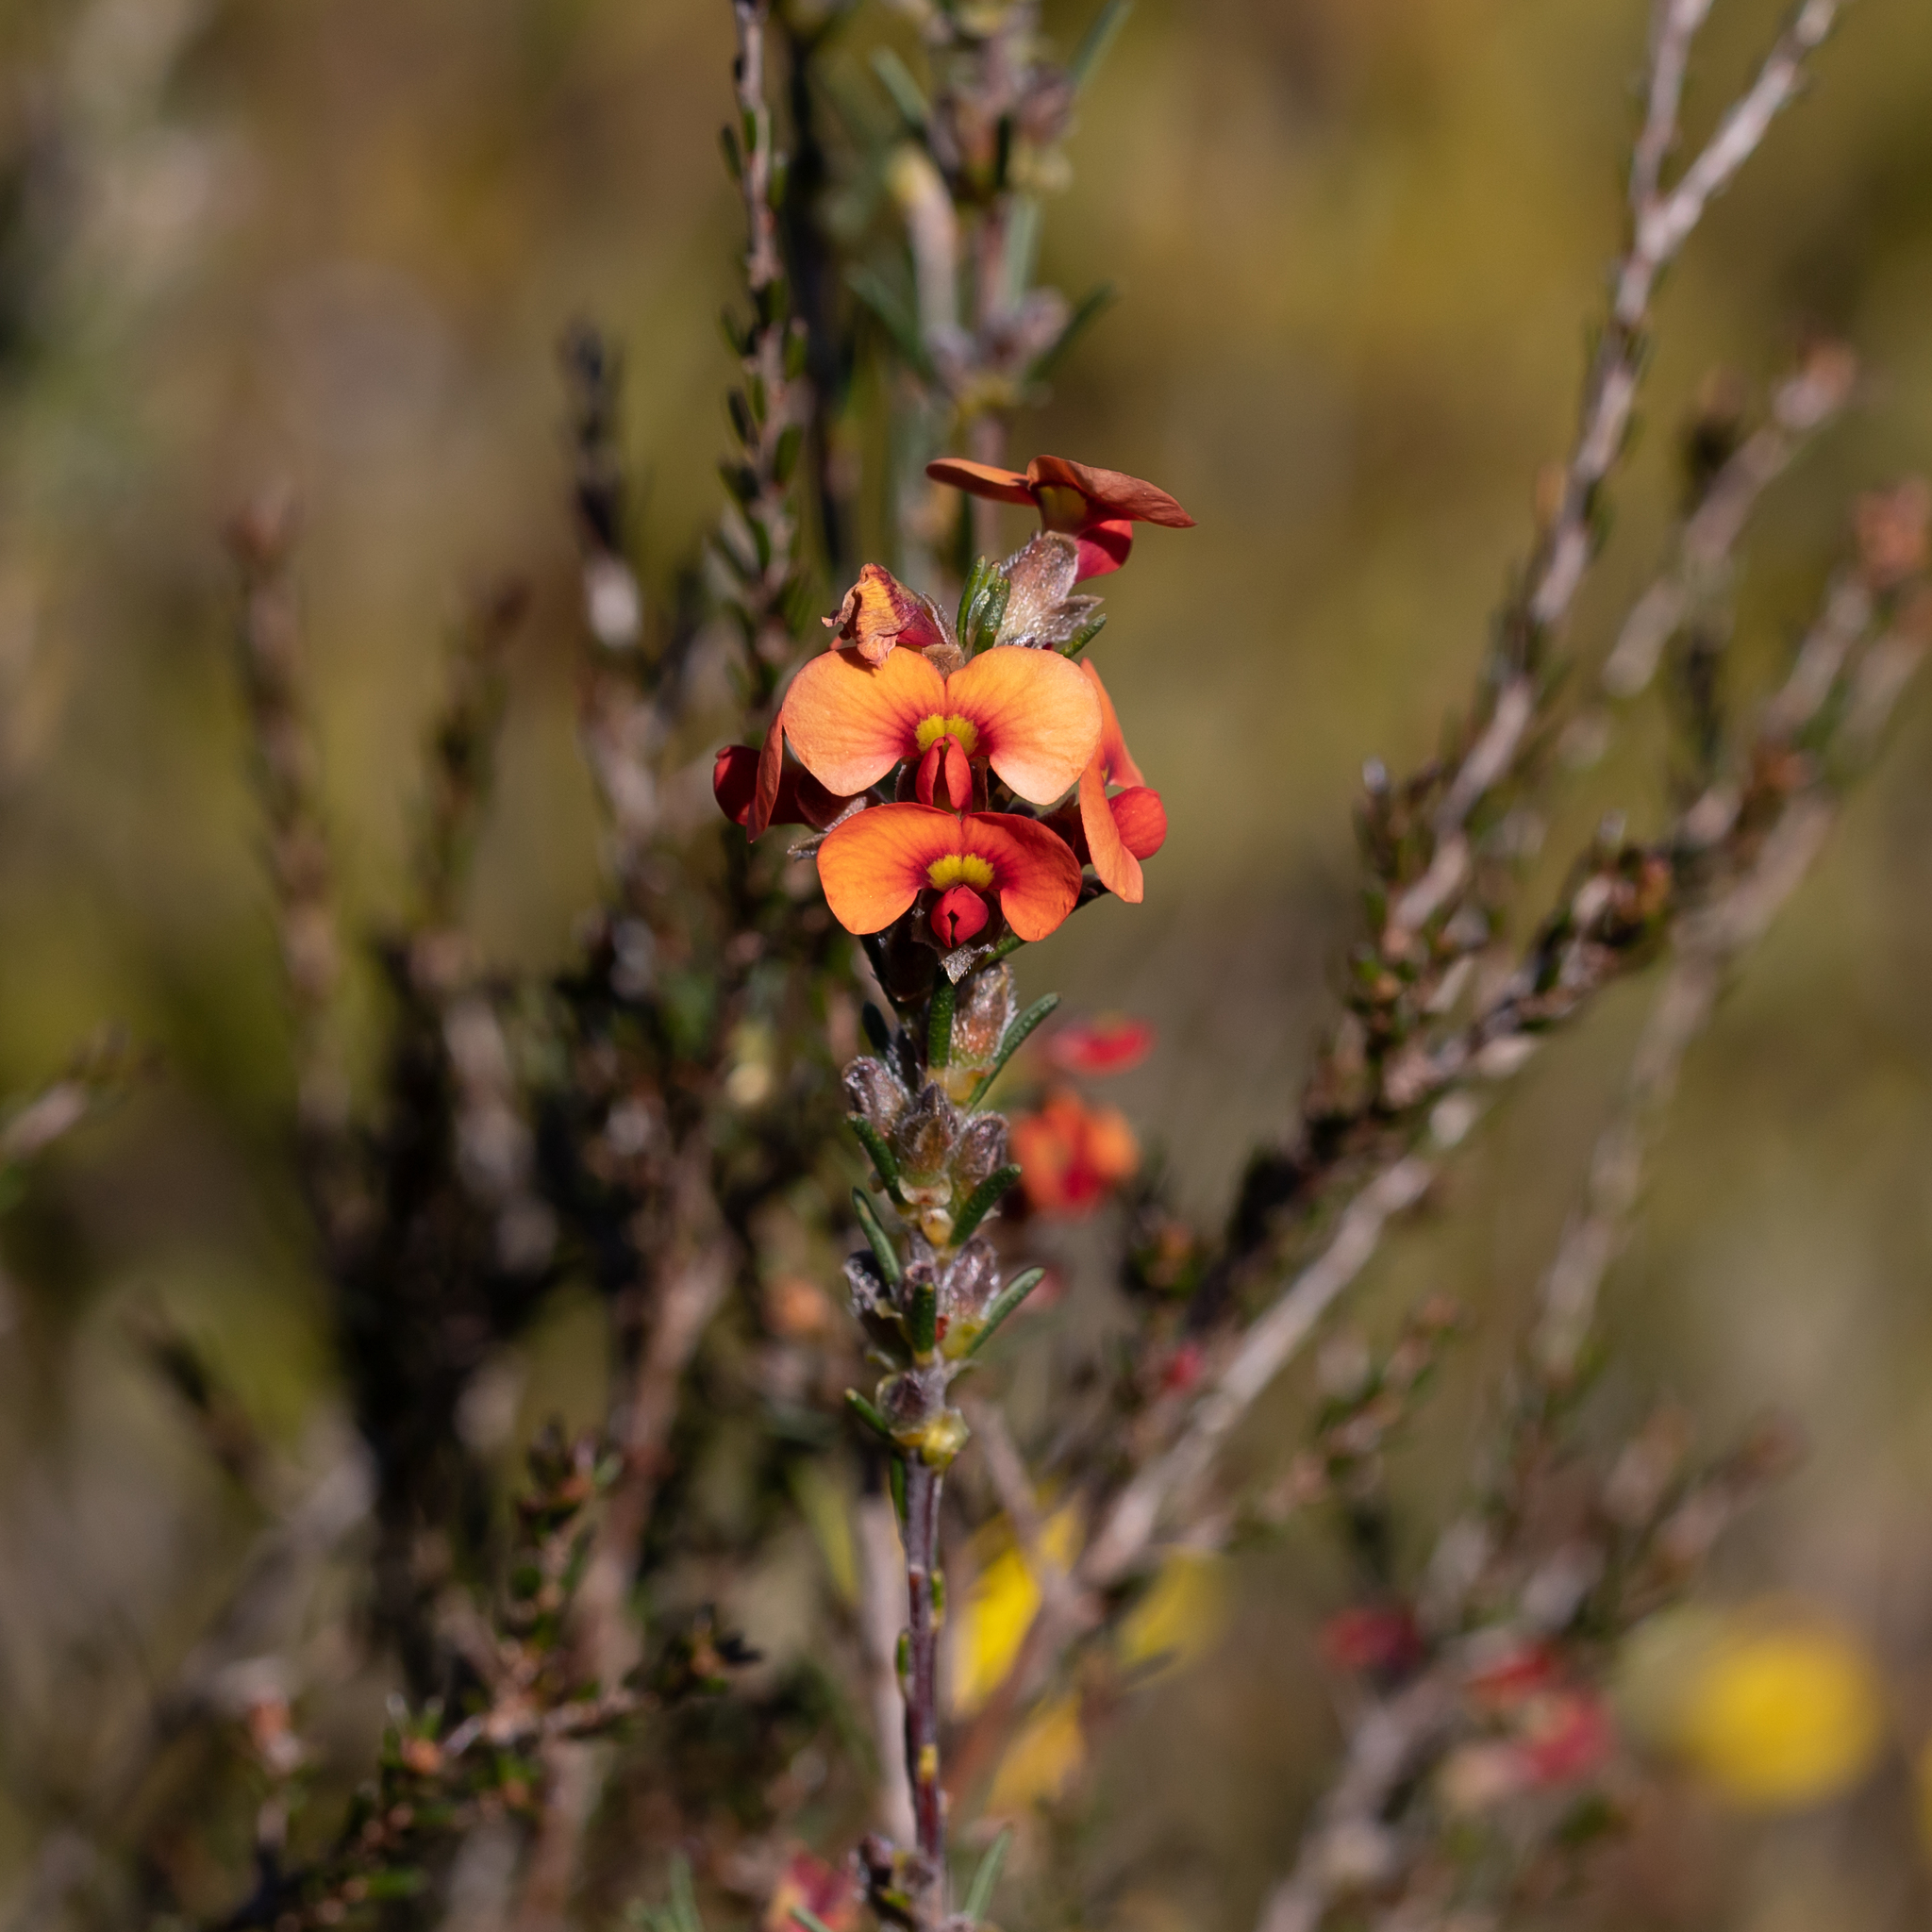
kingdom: Plantae
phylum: Tracheophyta
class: Magnoliopsida
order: Fabales
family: Fabaceae
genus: Dillwynia
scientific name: Dillwynia sericea
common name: Showy parrot-pea
